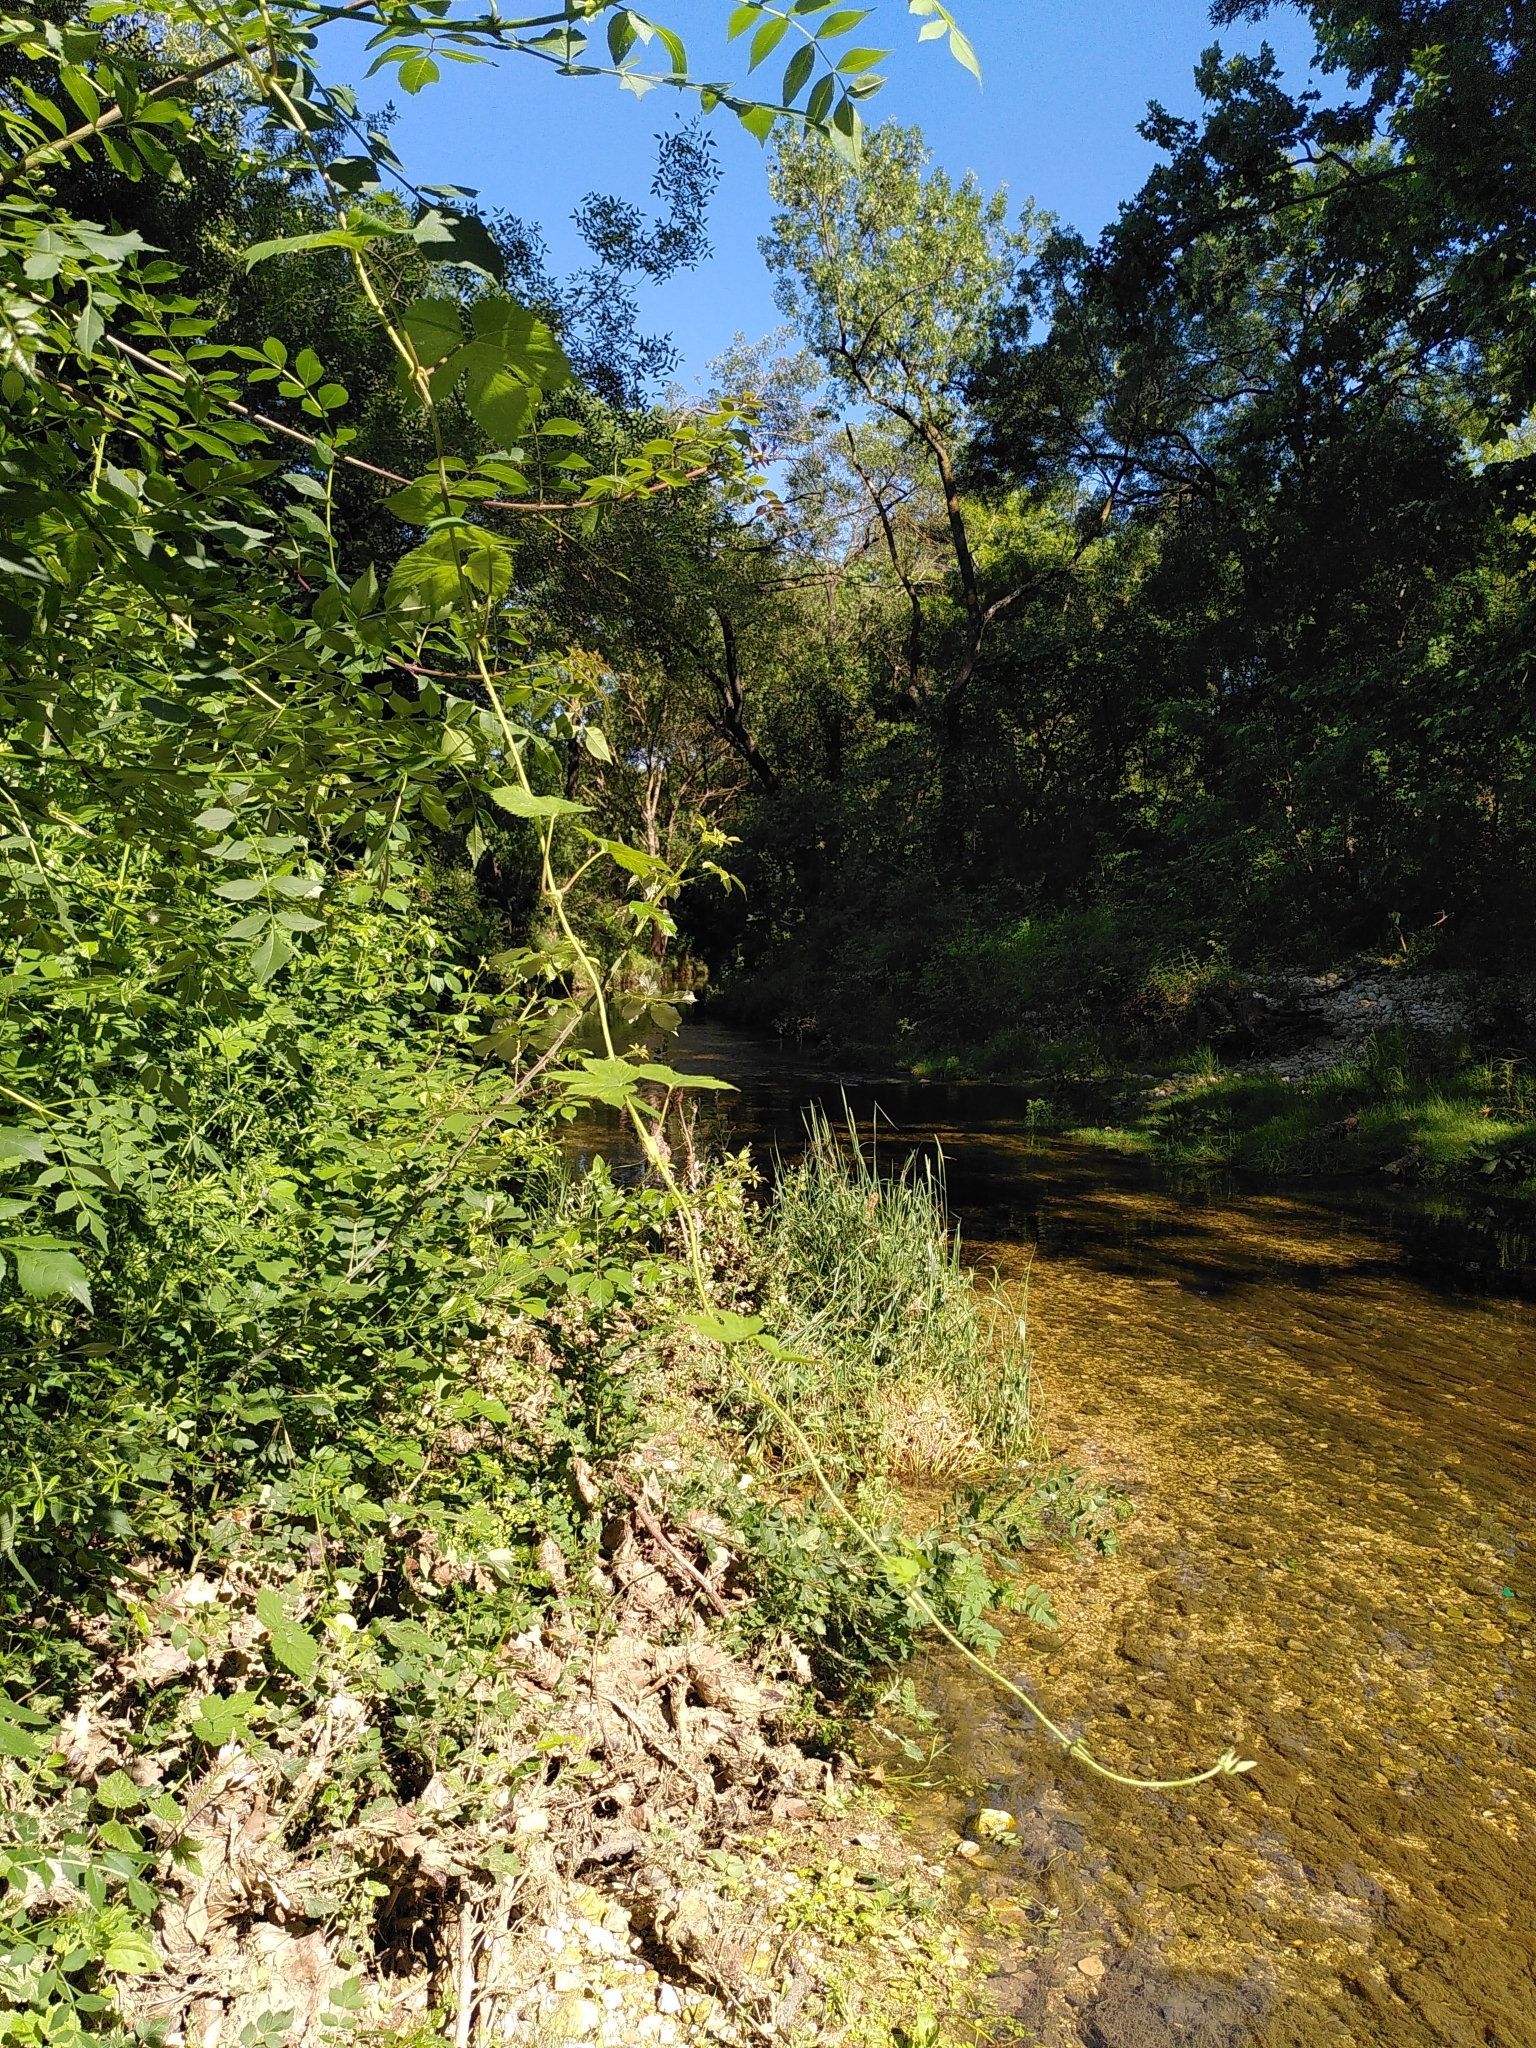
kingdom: Plantae
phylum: Tracheophyta
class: Magnoliopsida
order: Rosales
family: Cannabaceae
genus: Humulus
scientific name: Humulus lupulus
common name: Hop
